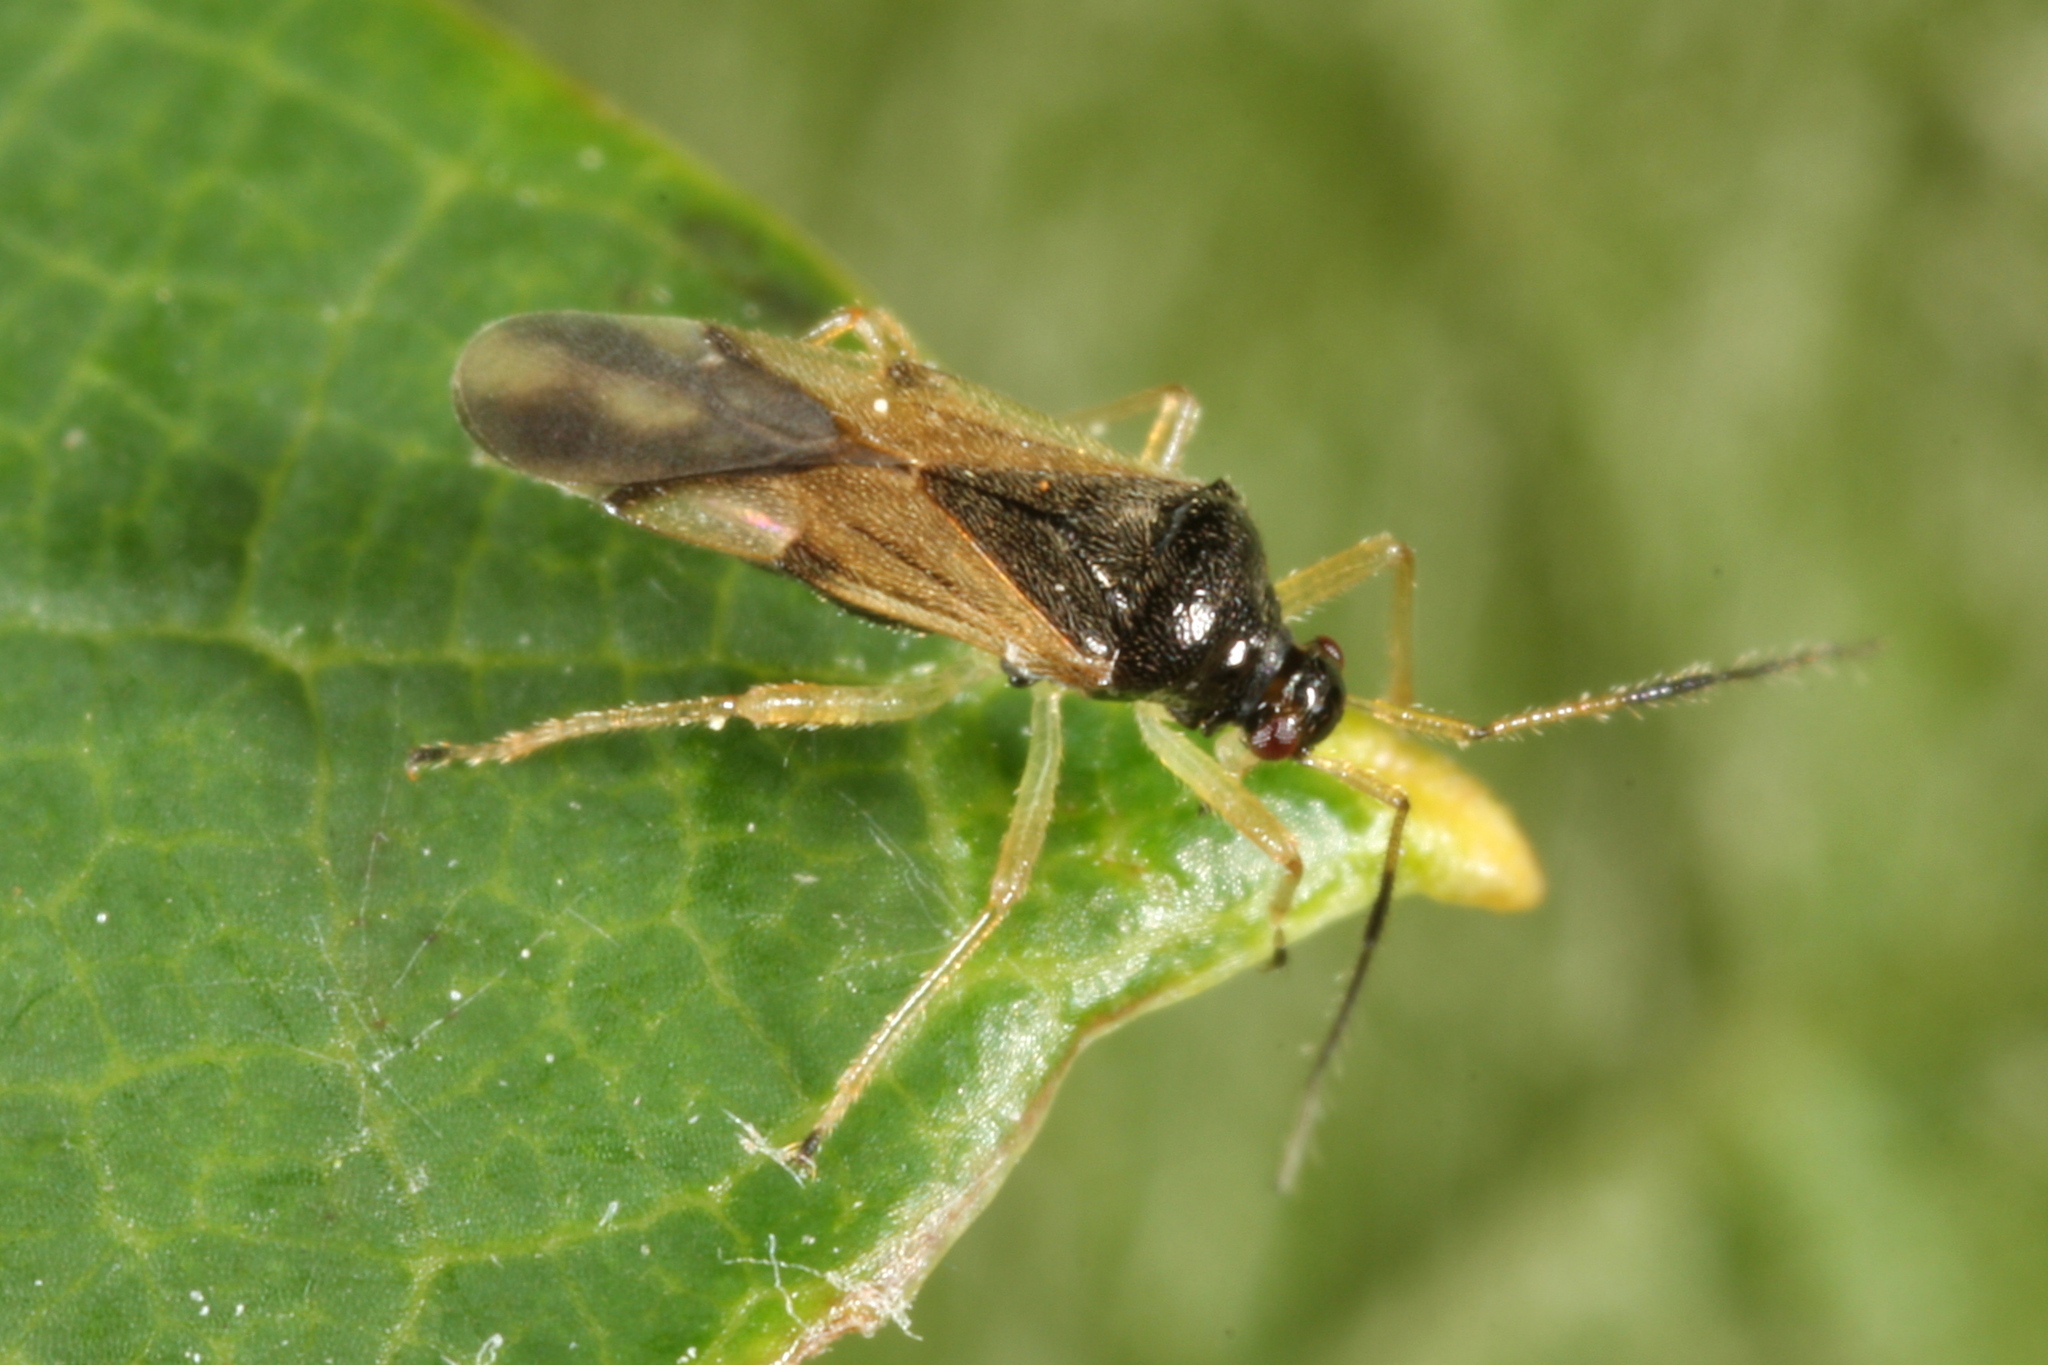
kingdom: Animalia
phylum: Arthropoda
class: Insecta
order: Hemiptera
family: Miridae
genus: Bryocoris
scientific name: Bryocoris pteridis
